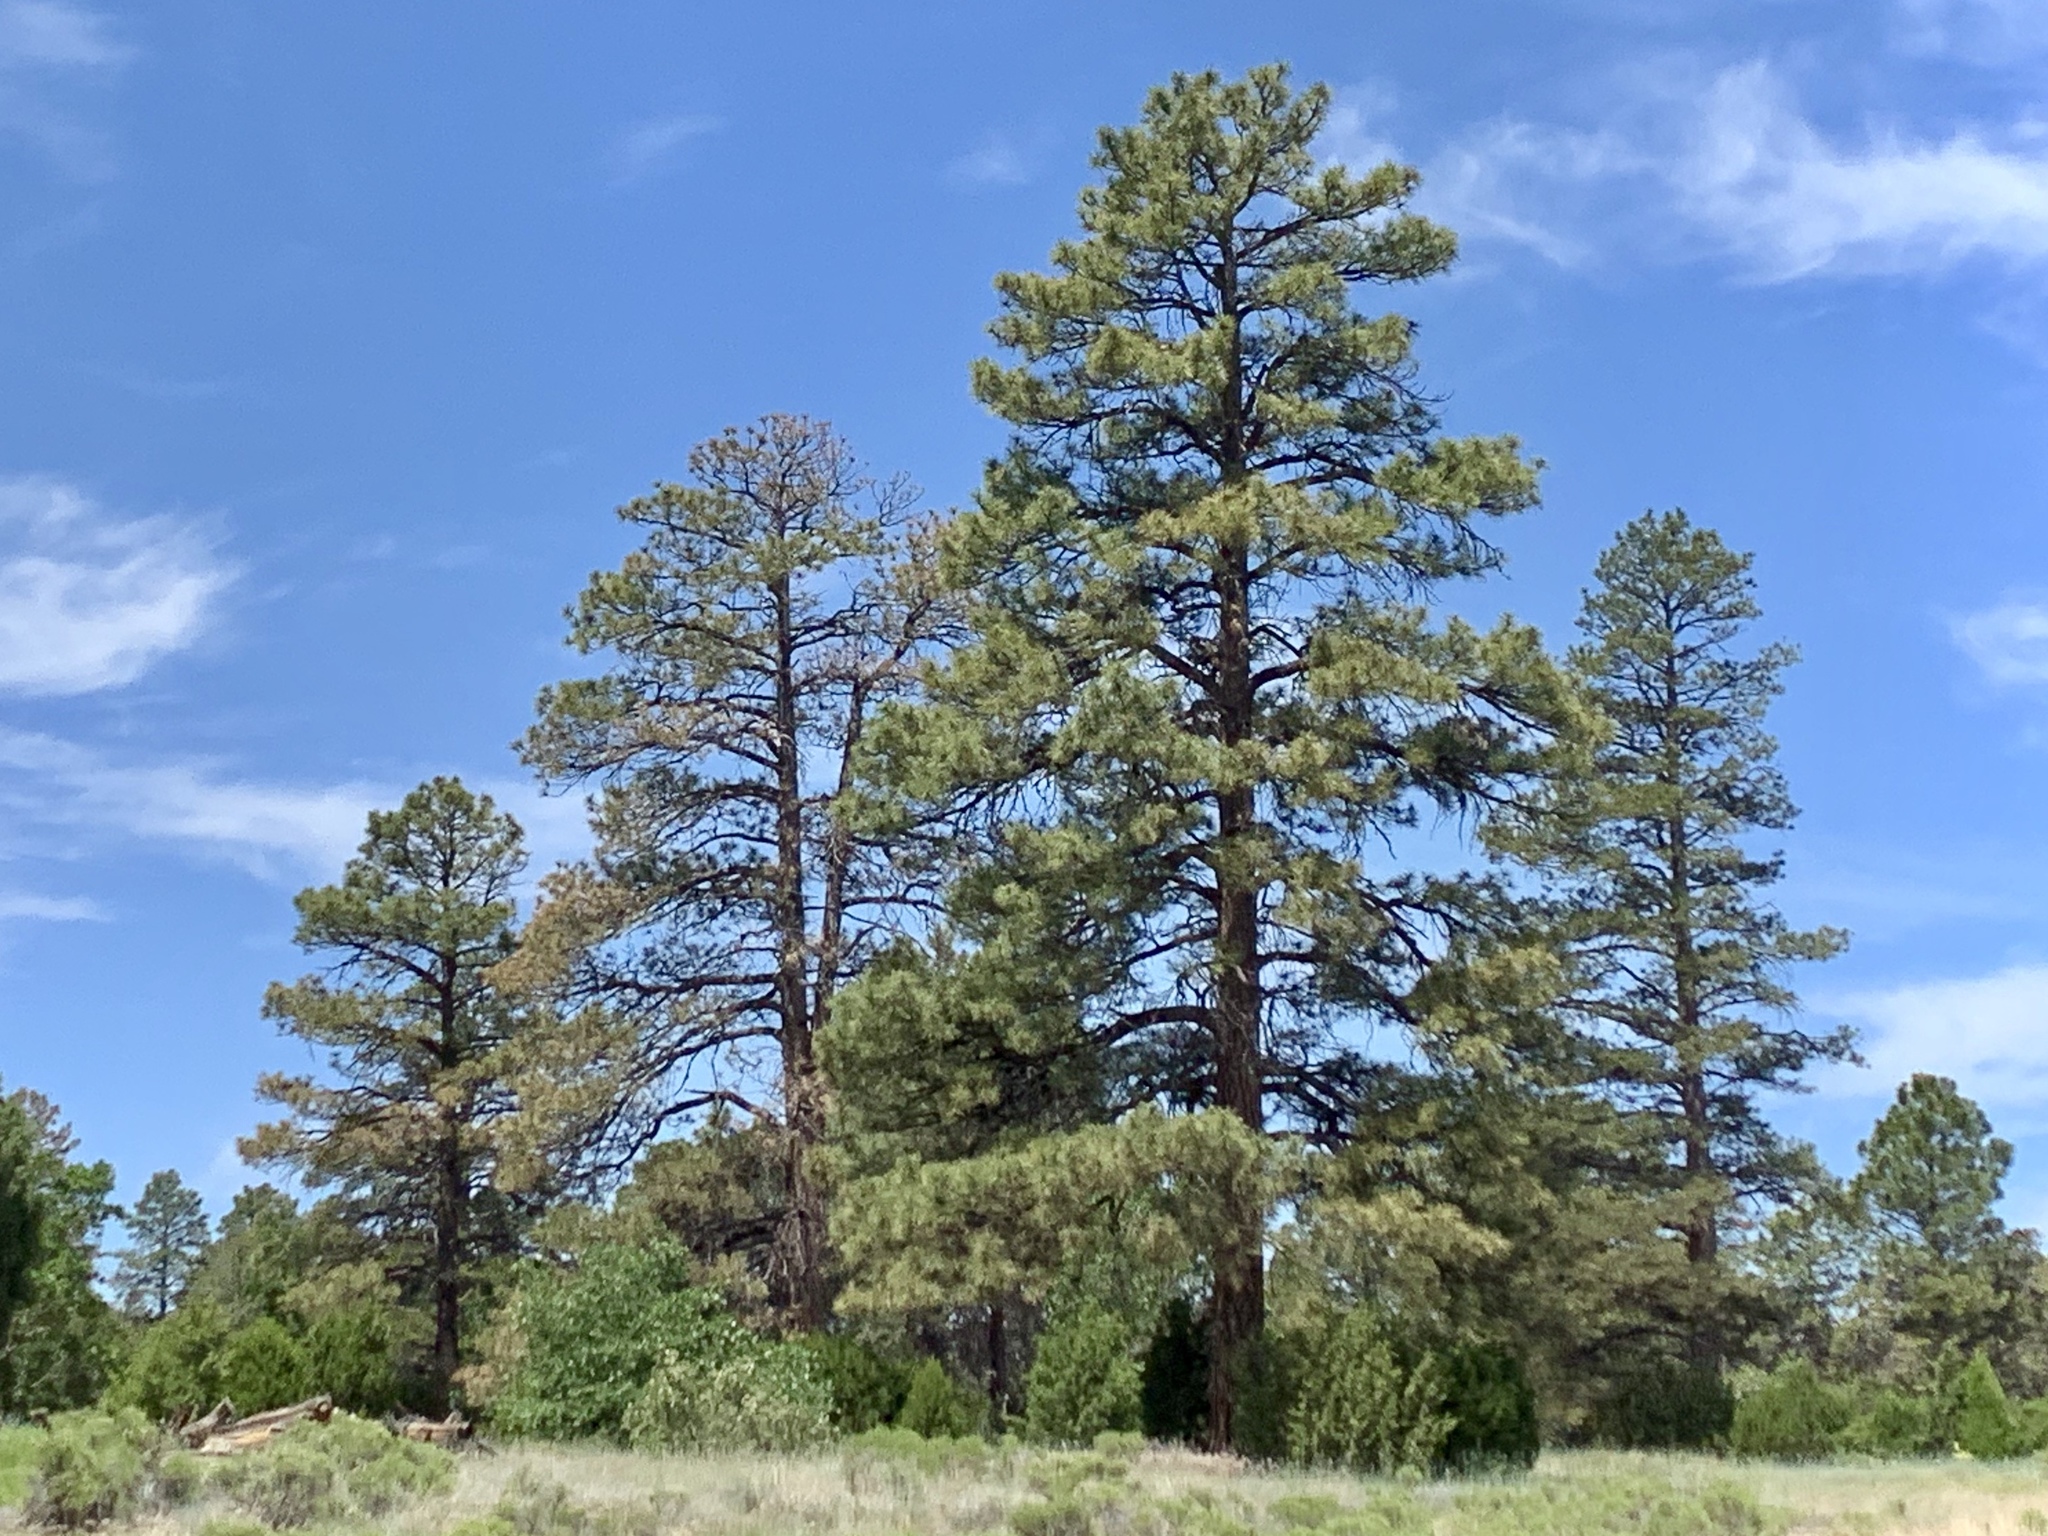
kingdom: Plantae
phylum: Tracheophyta
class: Pinopsida
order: Pinales
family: Pinaceae
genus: Pinus
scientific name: Pinus ponderosa
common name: Western yellow-pine
